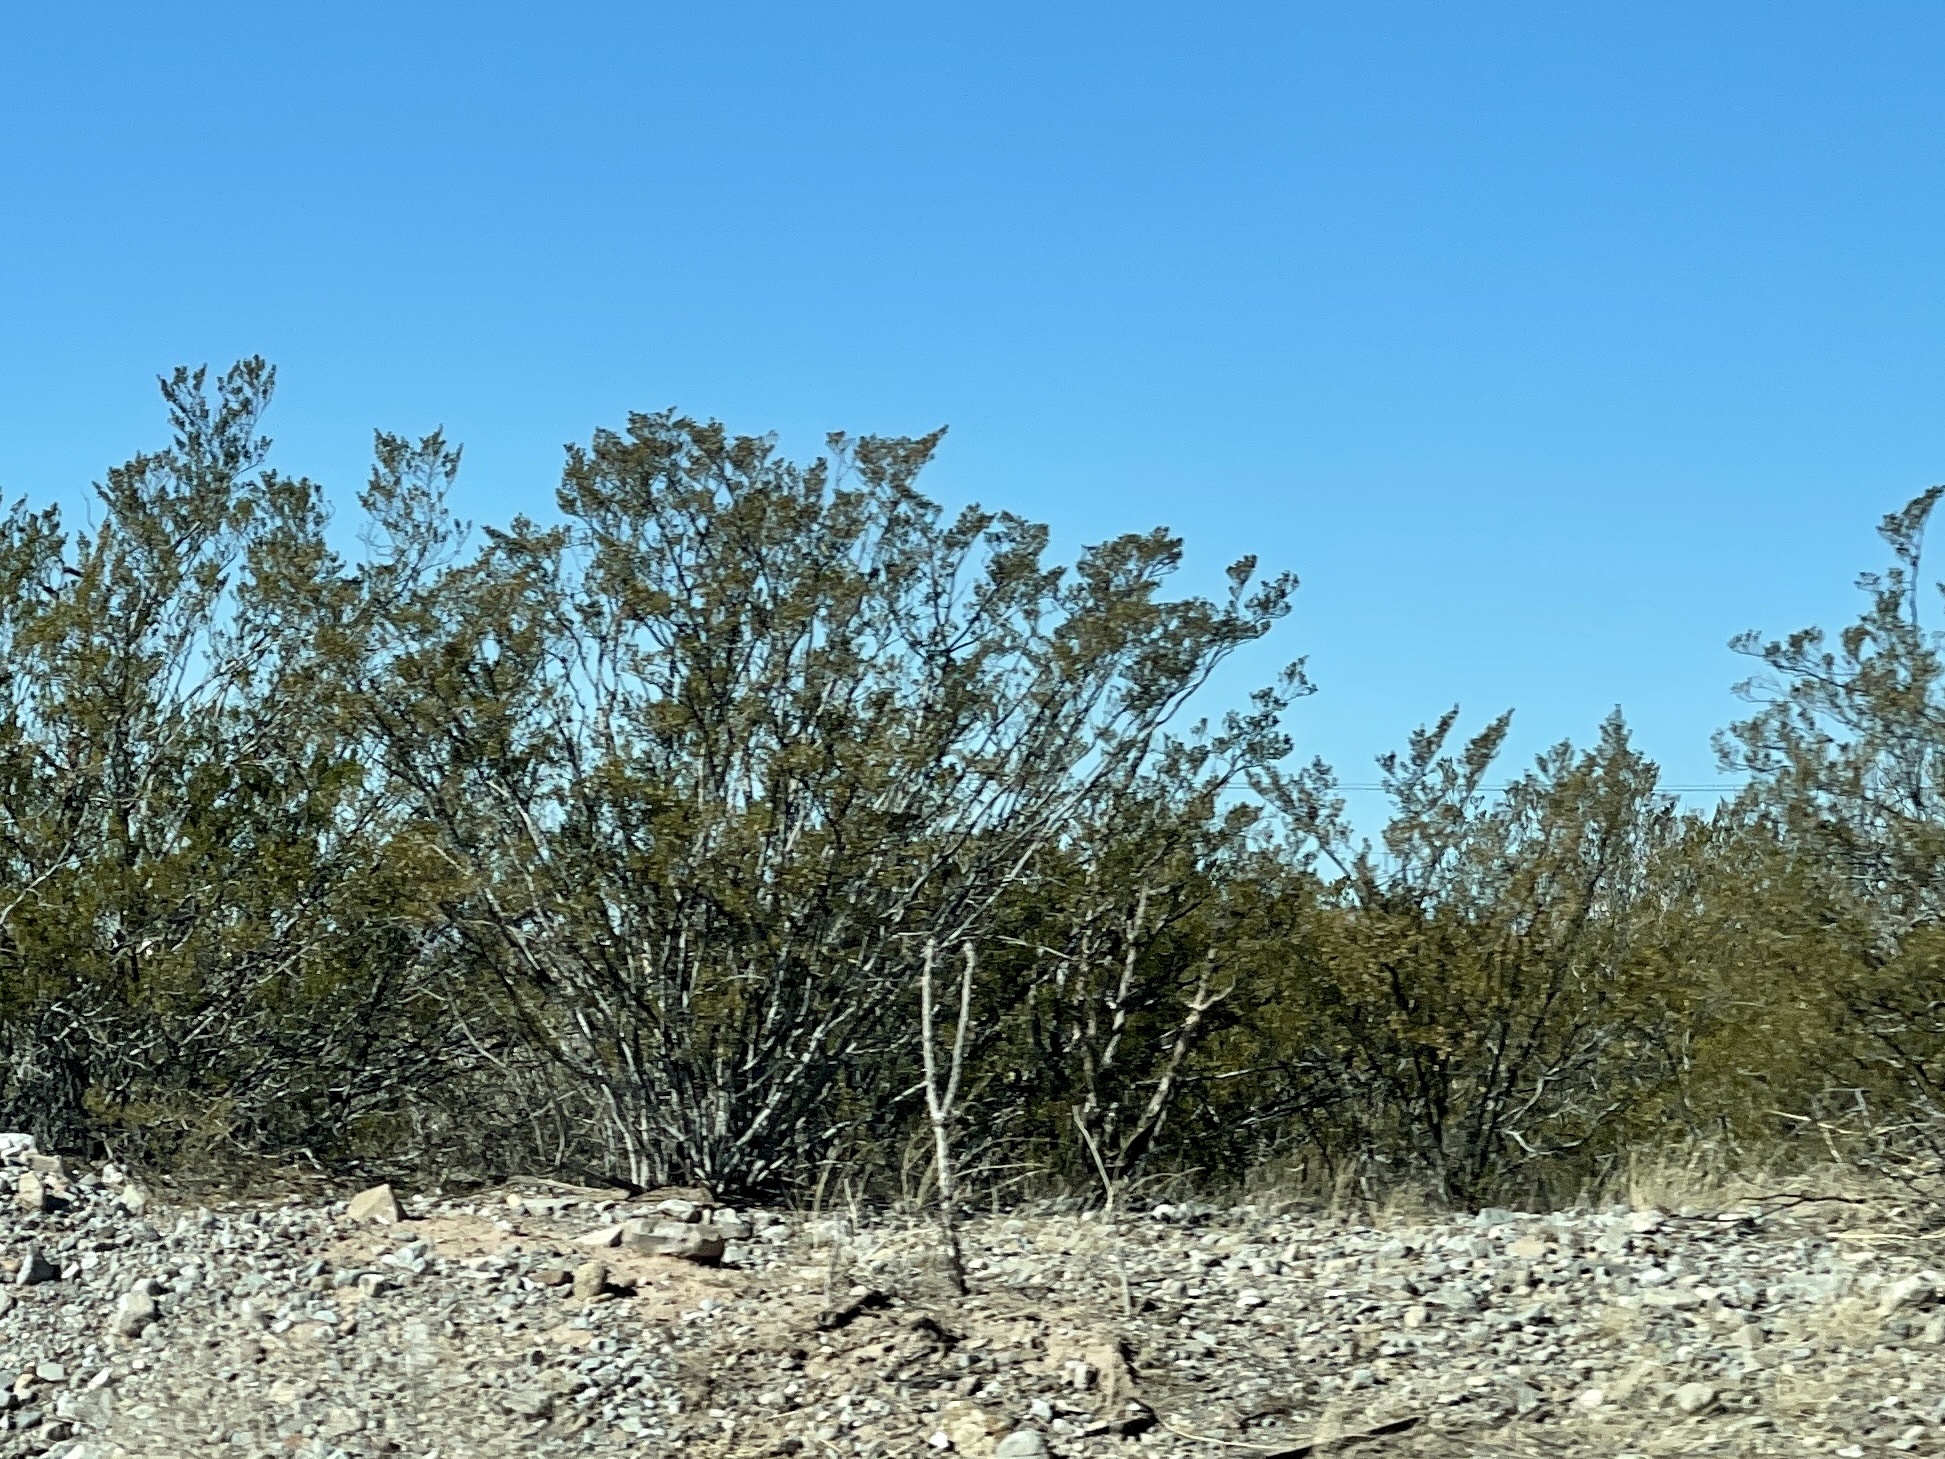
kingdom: Plantae
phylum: Tracheophyta
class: Magnoliopsida
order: Zygophyllales
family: Zygophyllaceae
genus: Larrea
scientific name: Larrea tridentata
